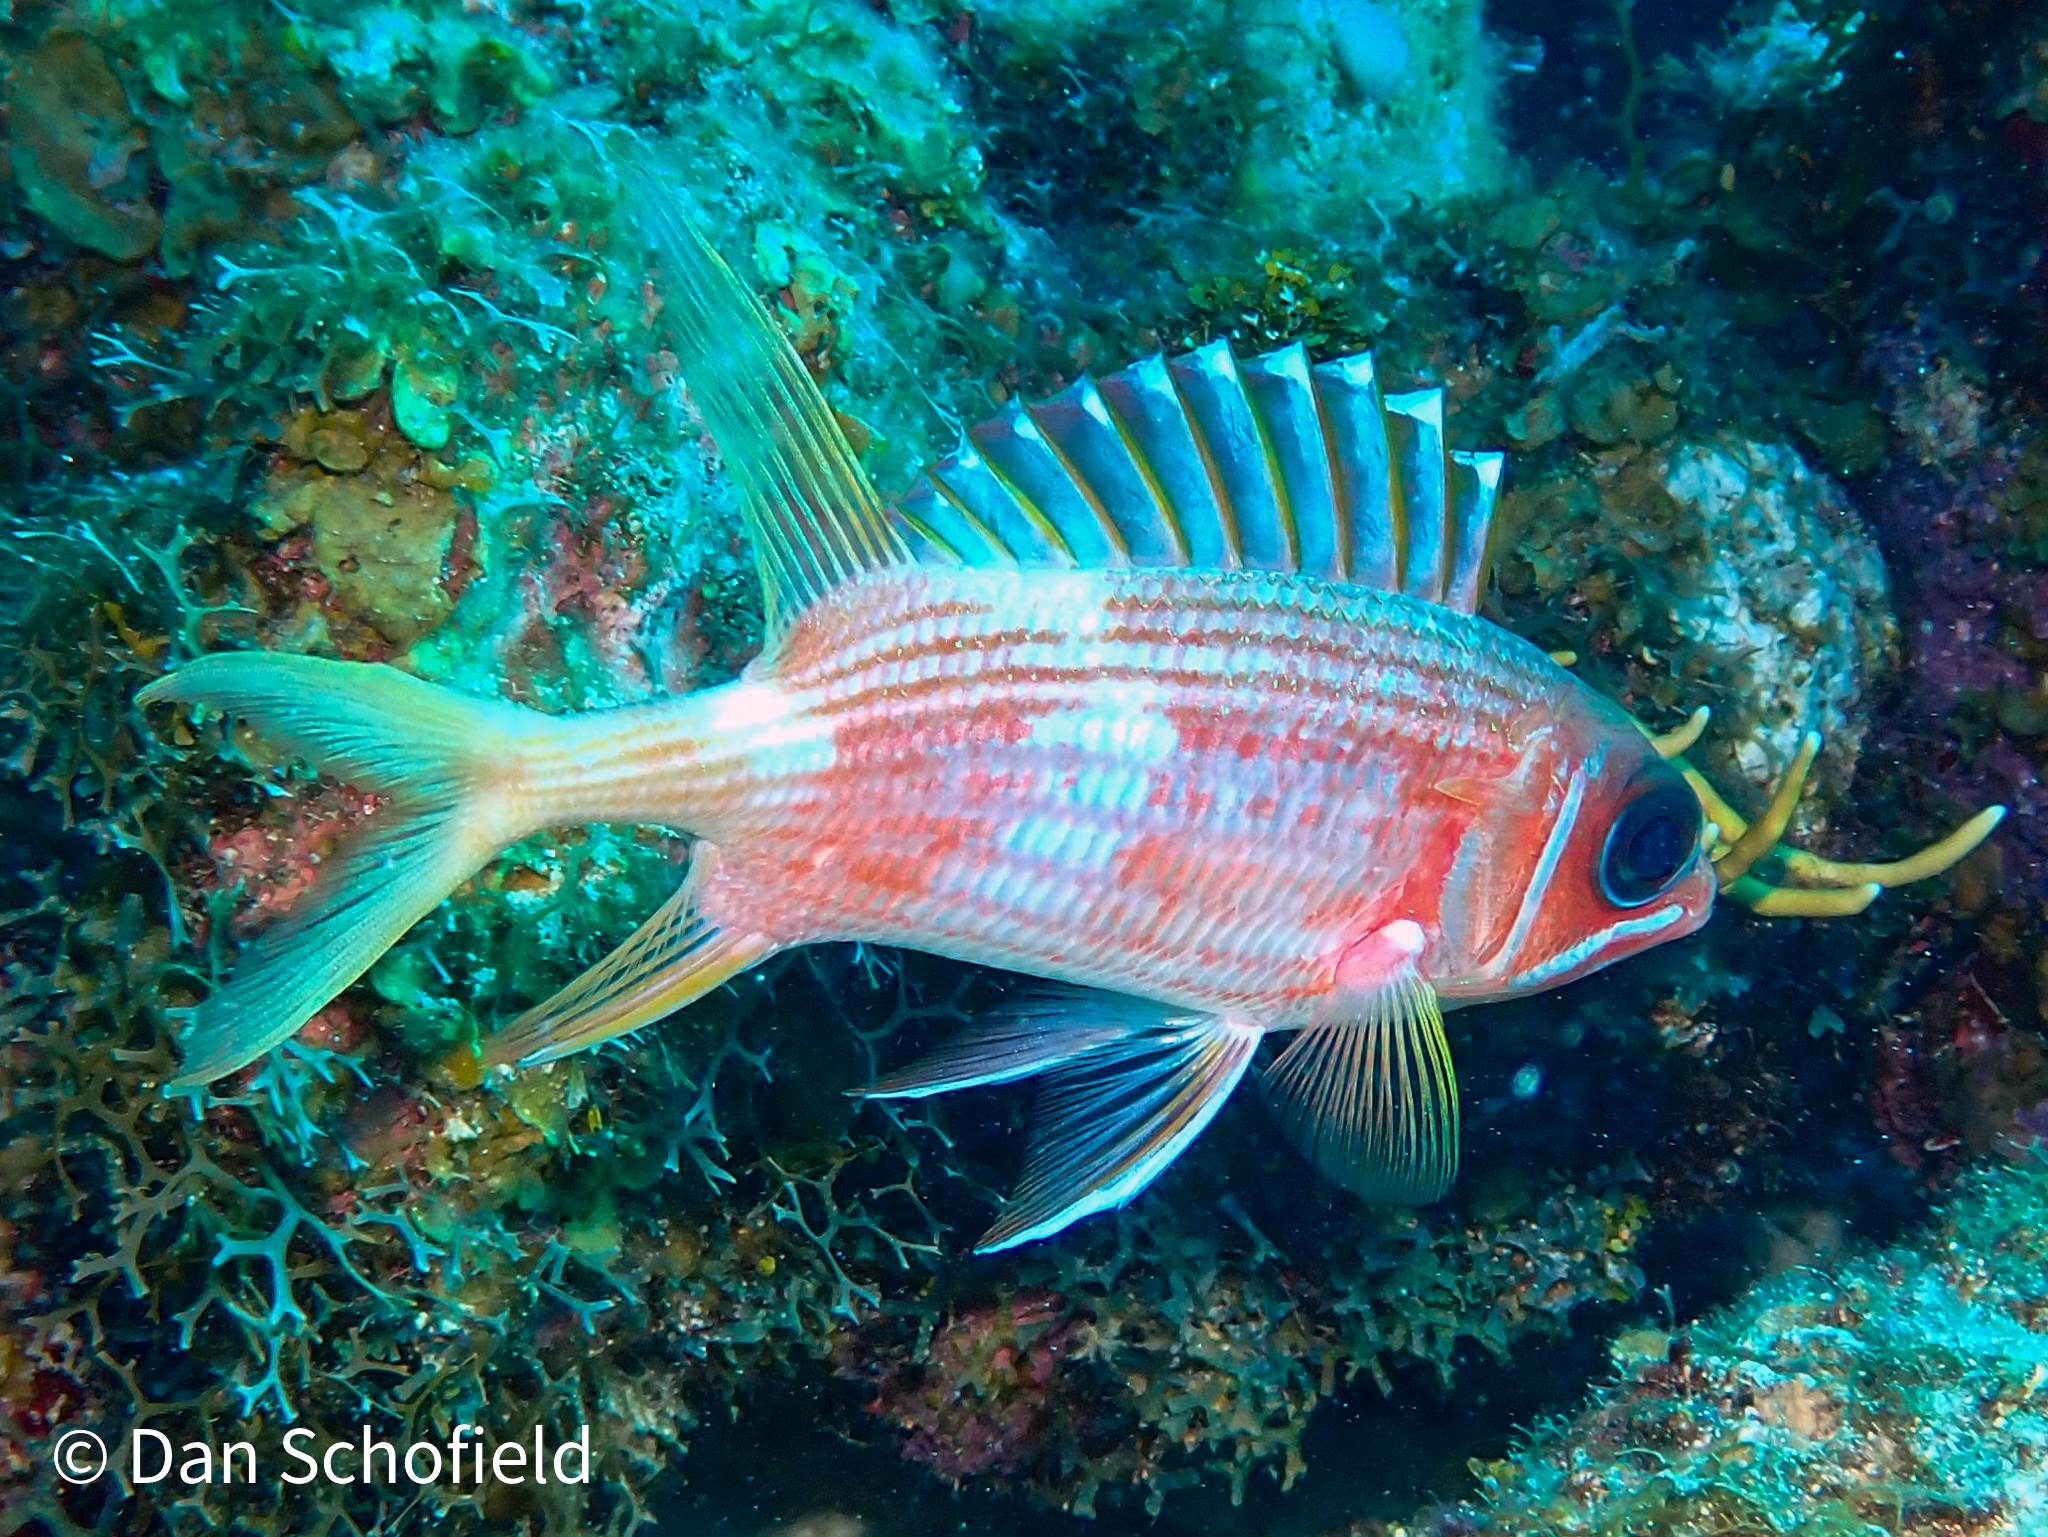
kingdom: Animalia
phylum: Chordata
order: Beryciformes
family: Holocentridae
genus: Holocentrus
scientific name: Holocentrus rufus
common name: Longspine squirrelfish
